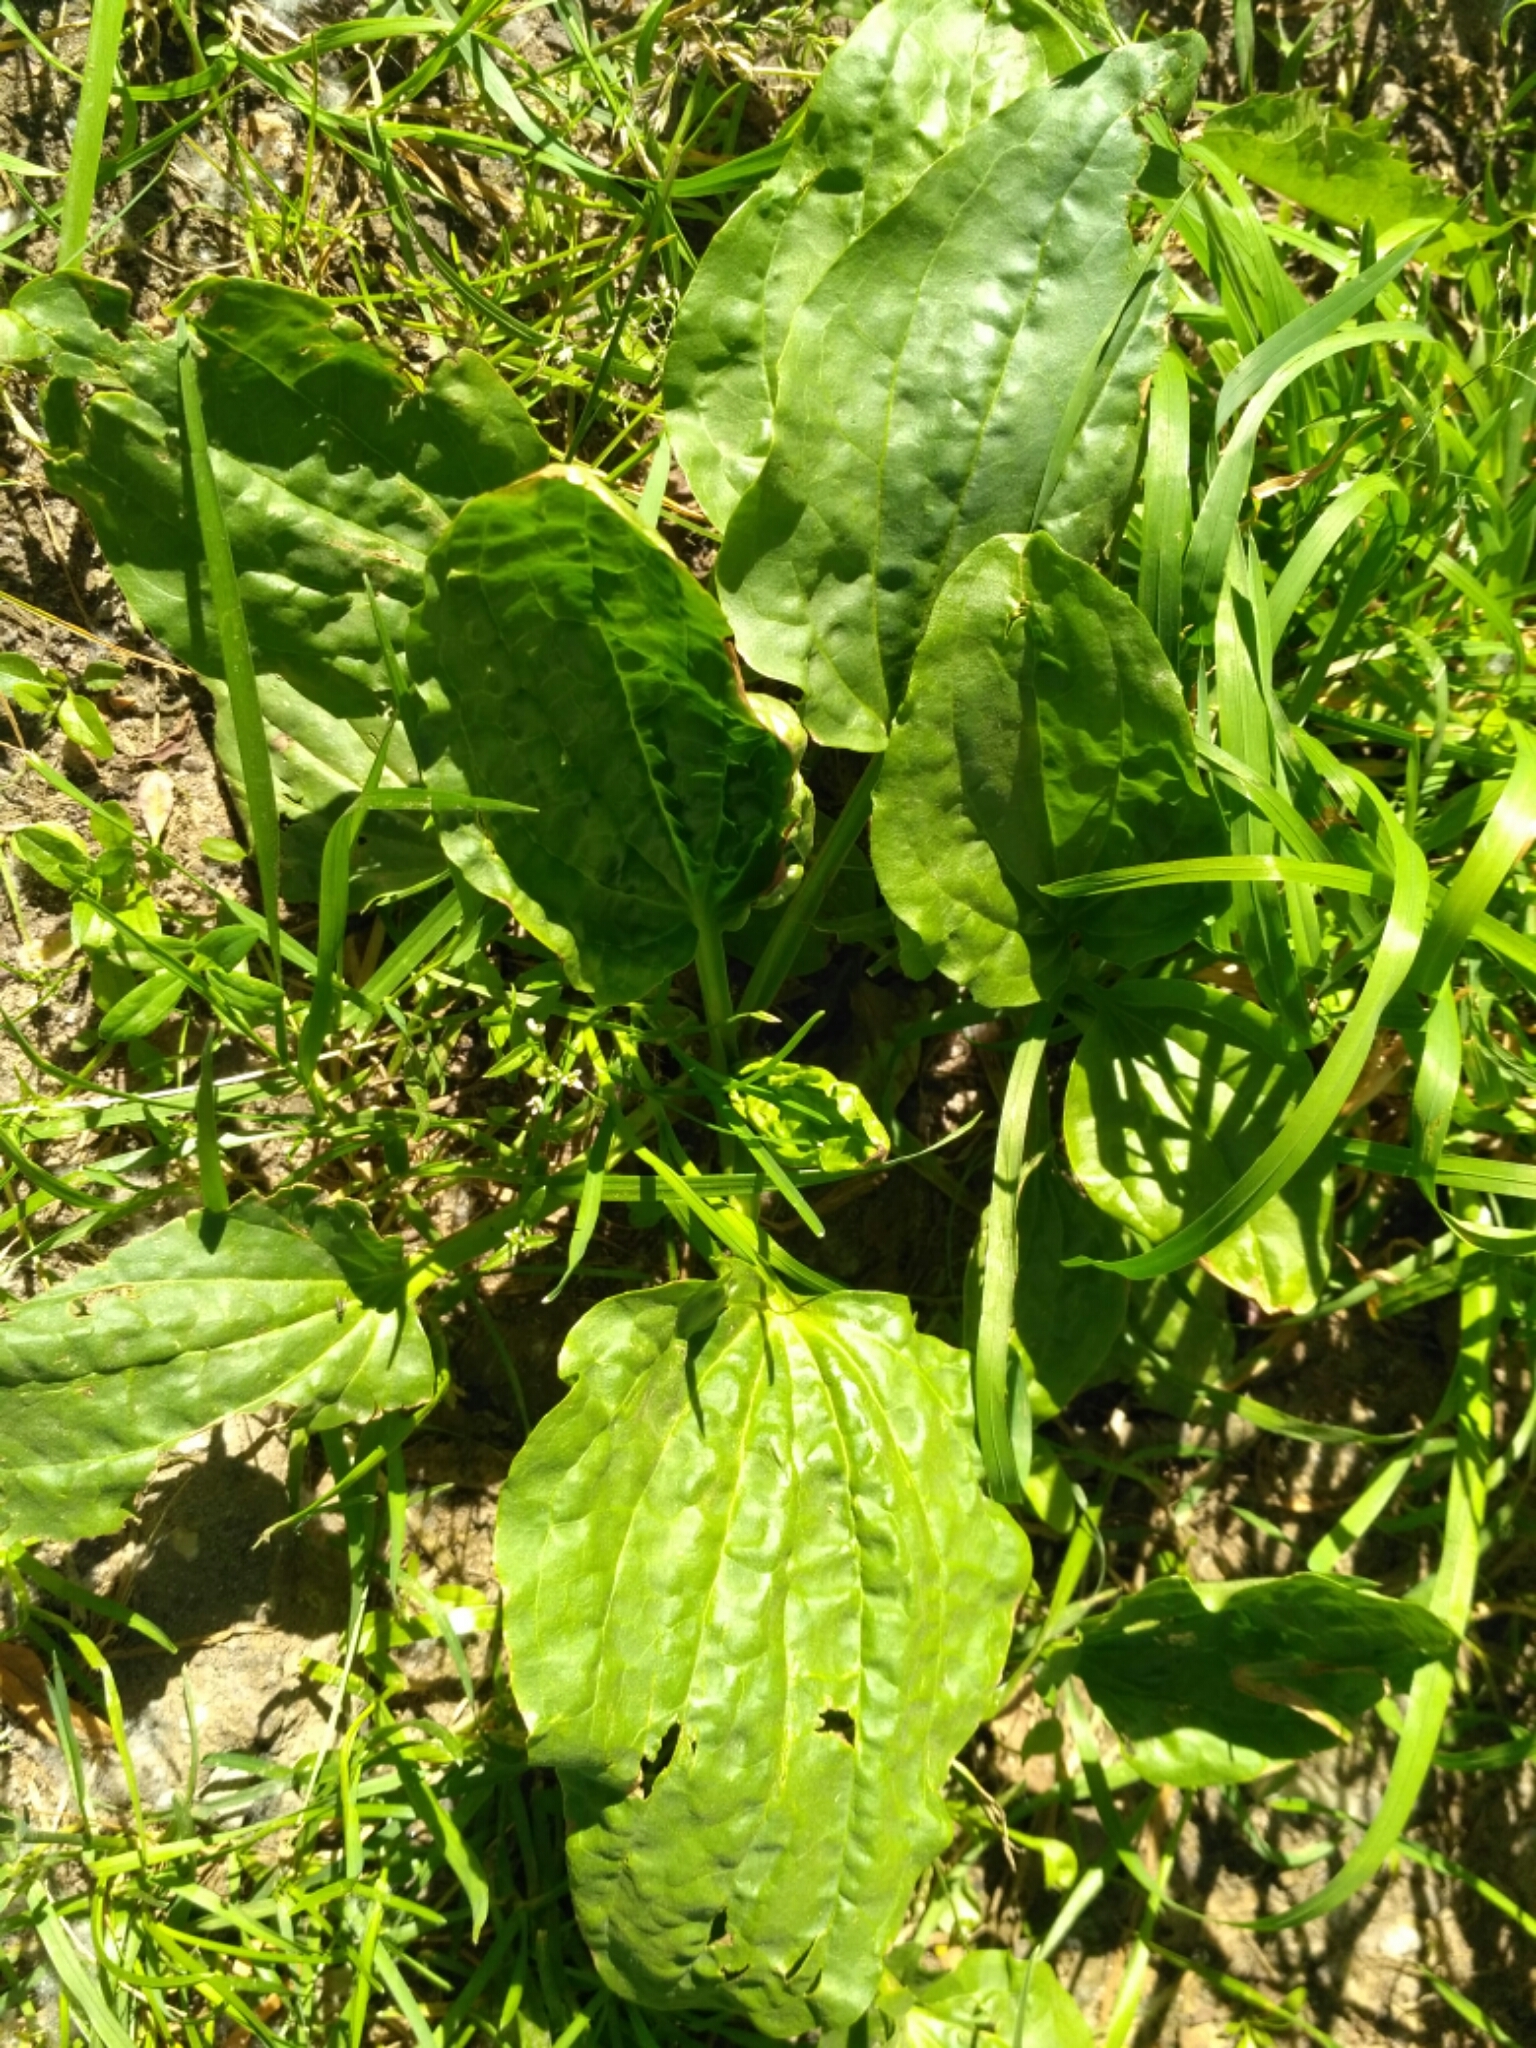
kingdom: Plantae
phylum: Tracheophyta
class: Magnoliopsida
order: Lamiales
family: Plantaginaceae
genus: Plantago
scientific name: Plantago major
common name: Common plantain
